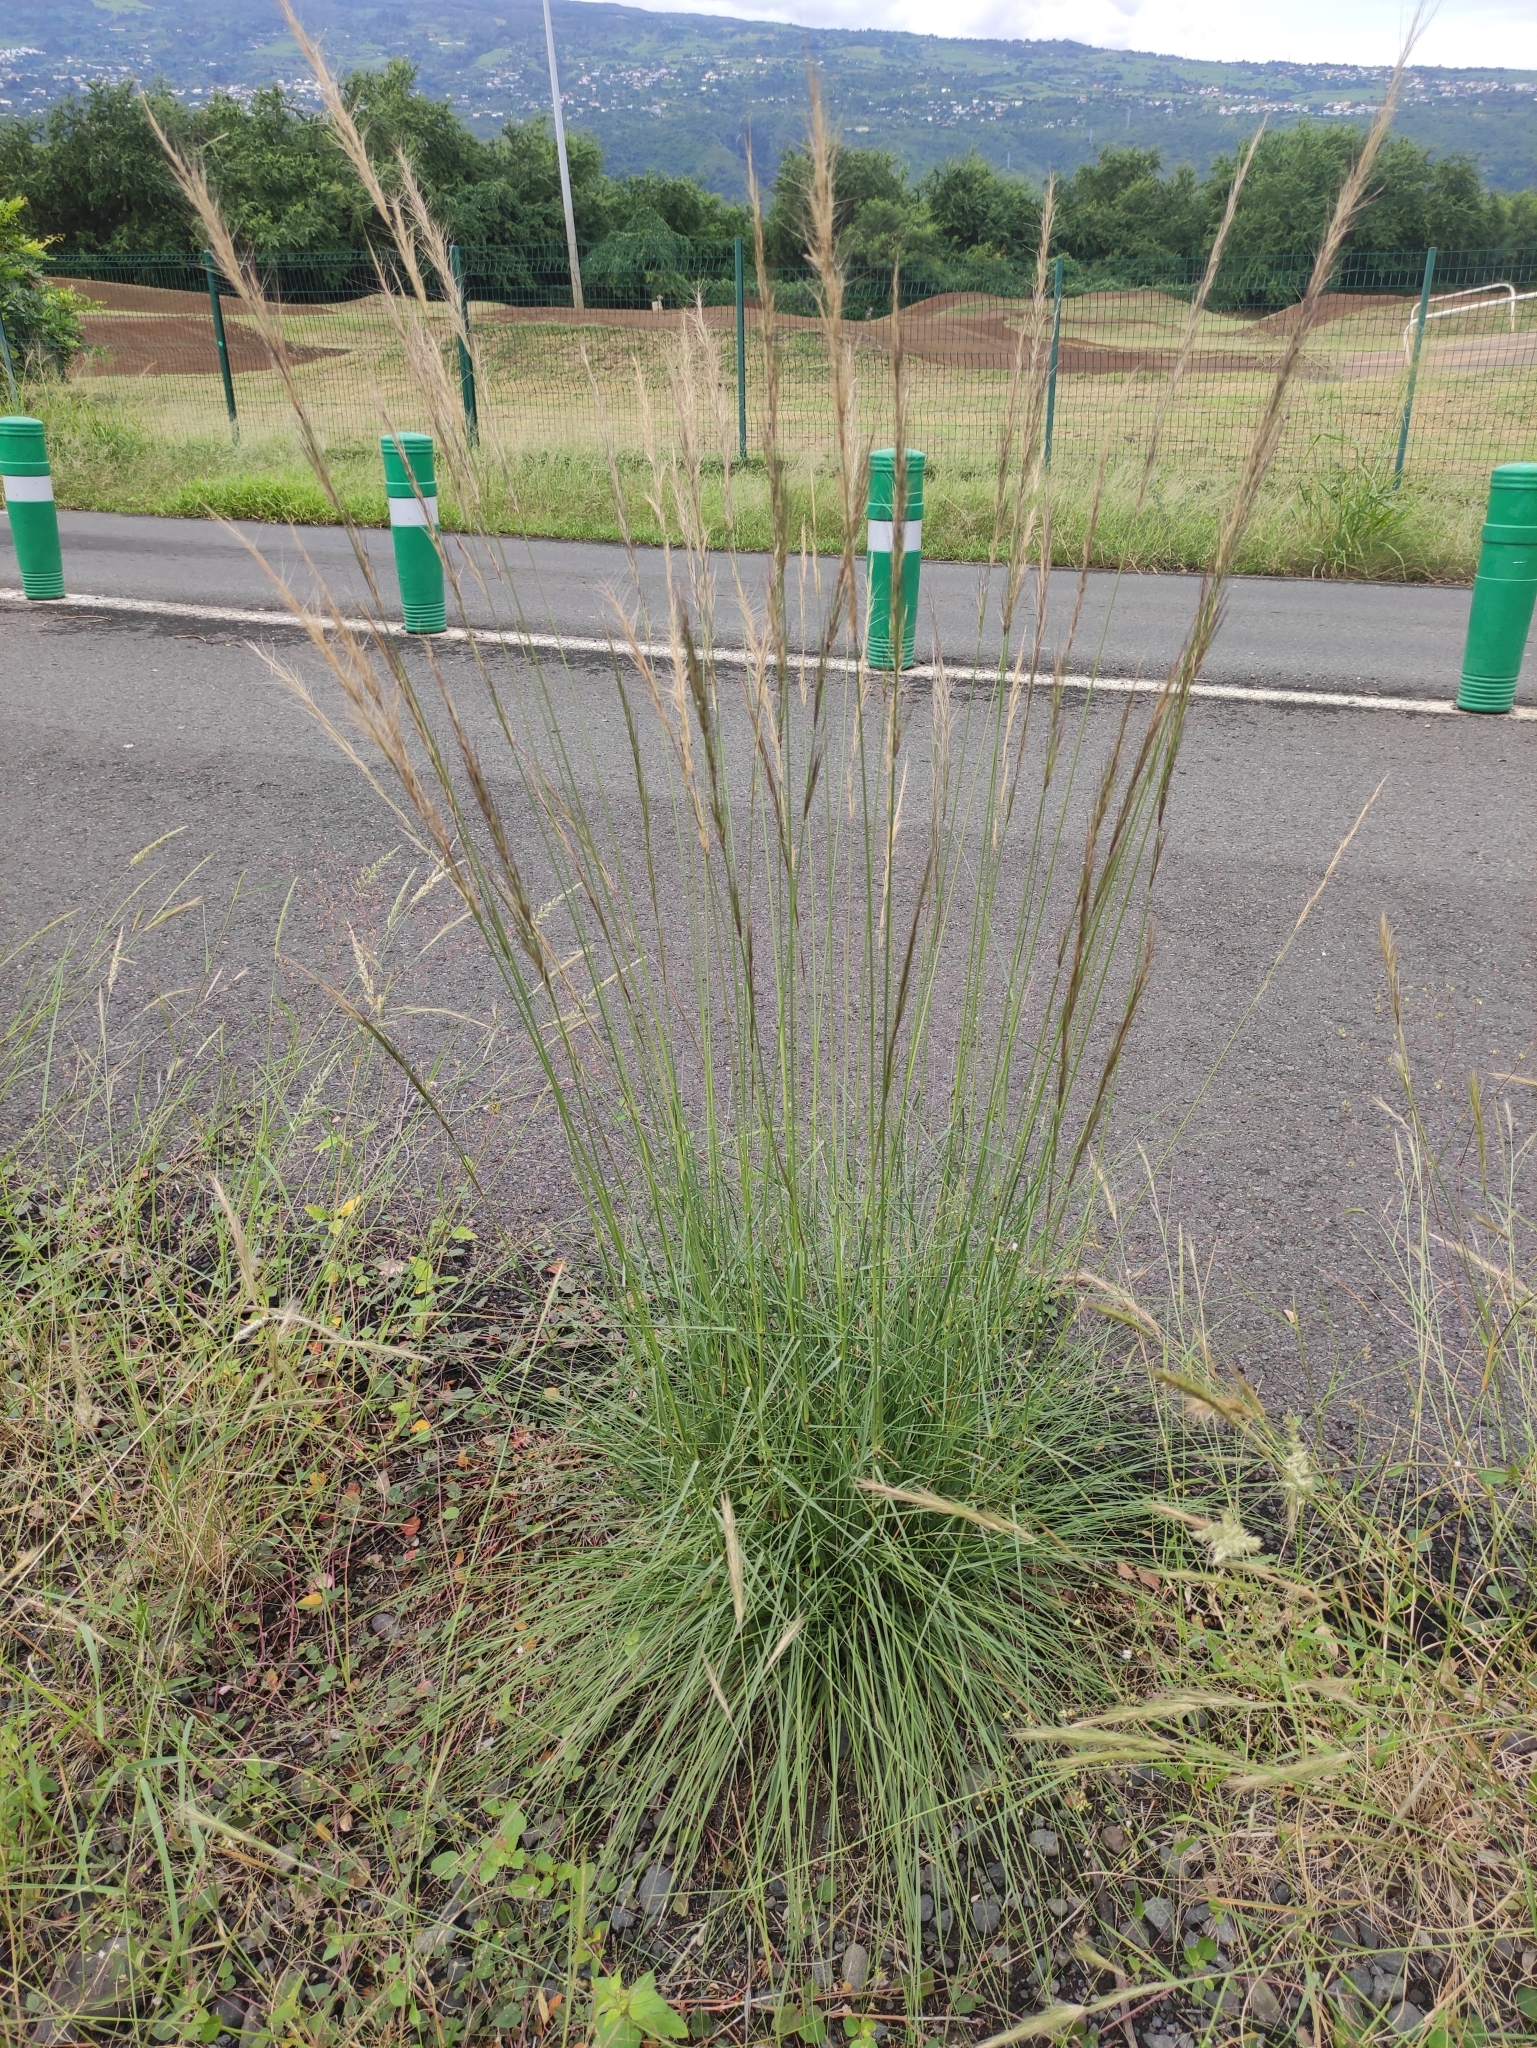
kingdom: Plantae
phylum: Tracheophyta
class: Liliopsida
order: Poales
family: Poaceae
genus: Aristida
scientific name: Aristida setacea
